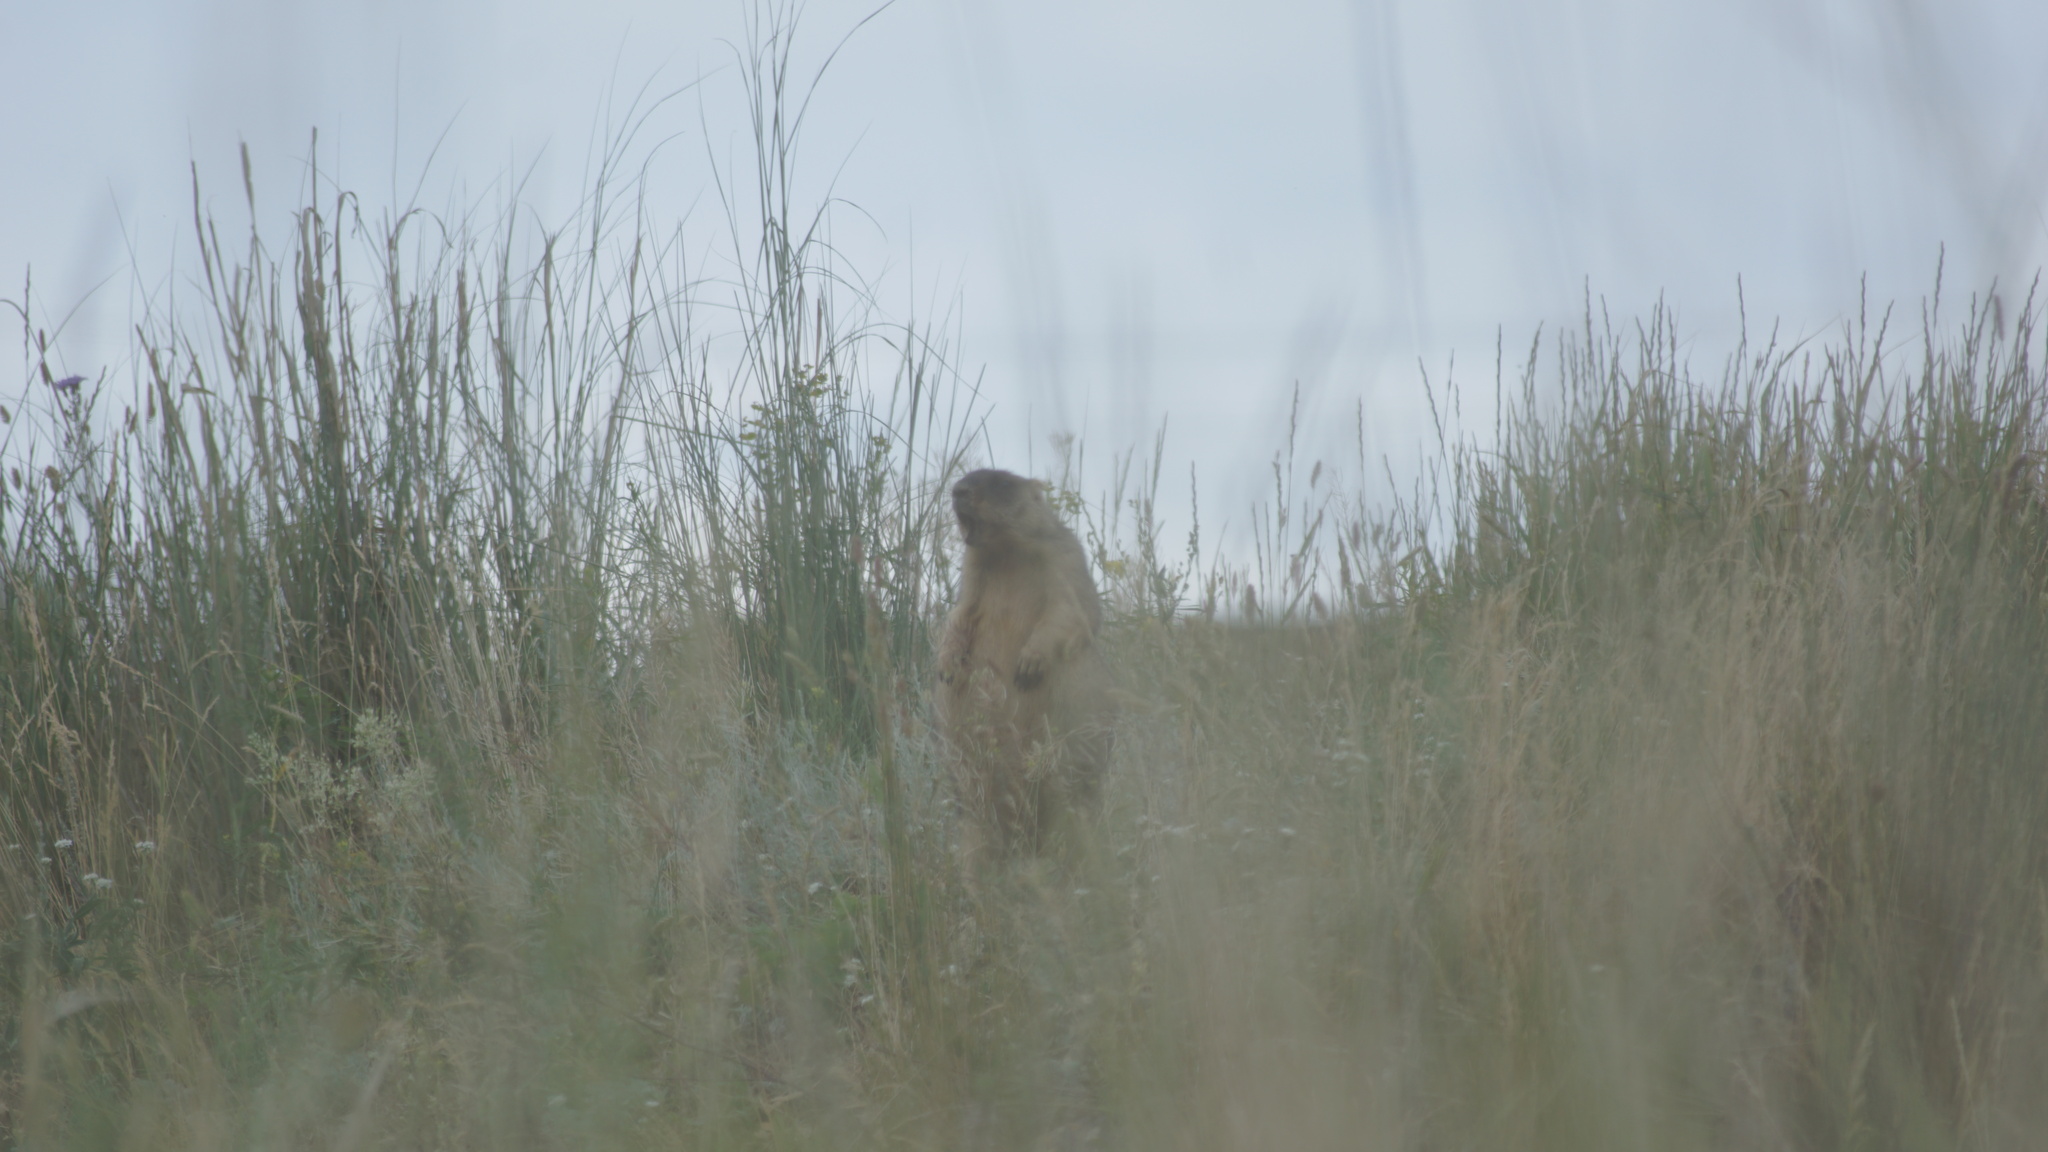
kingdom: Animalia
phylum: Chordata
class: Mammalia
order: Rodentia
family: Sciuridae
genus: Marmota
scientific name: Marmota bobak
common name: Bobak marmot
